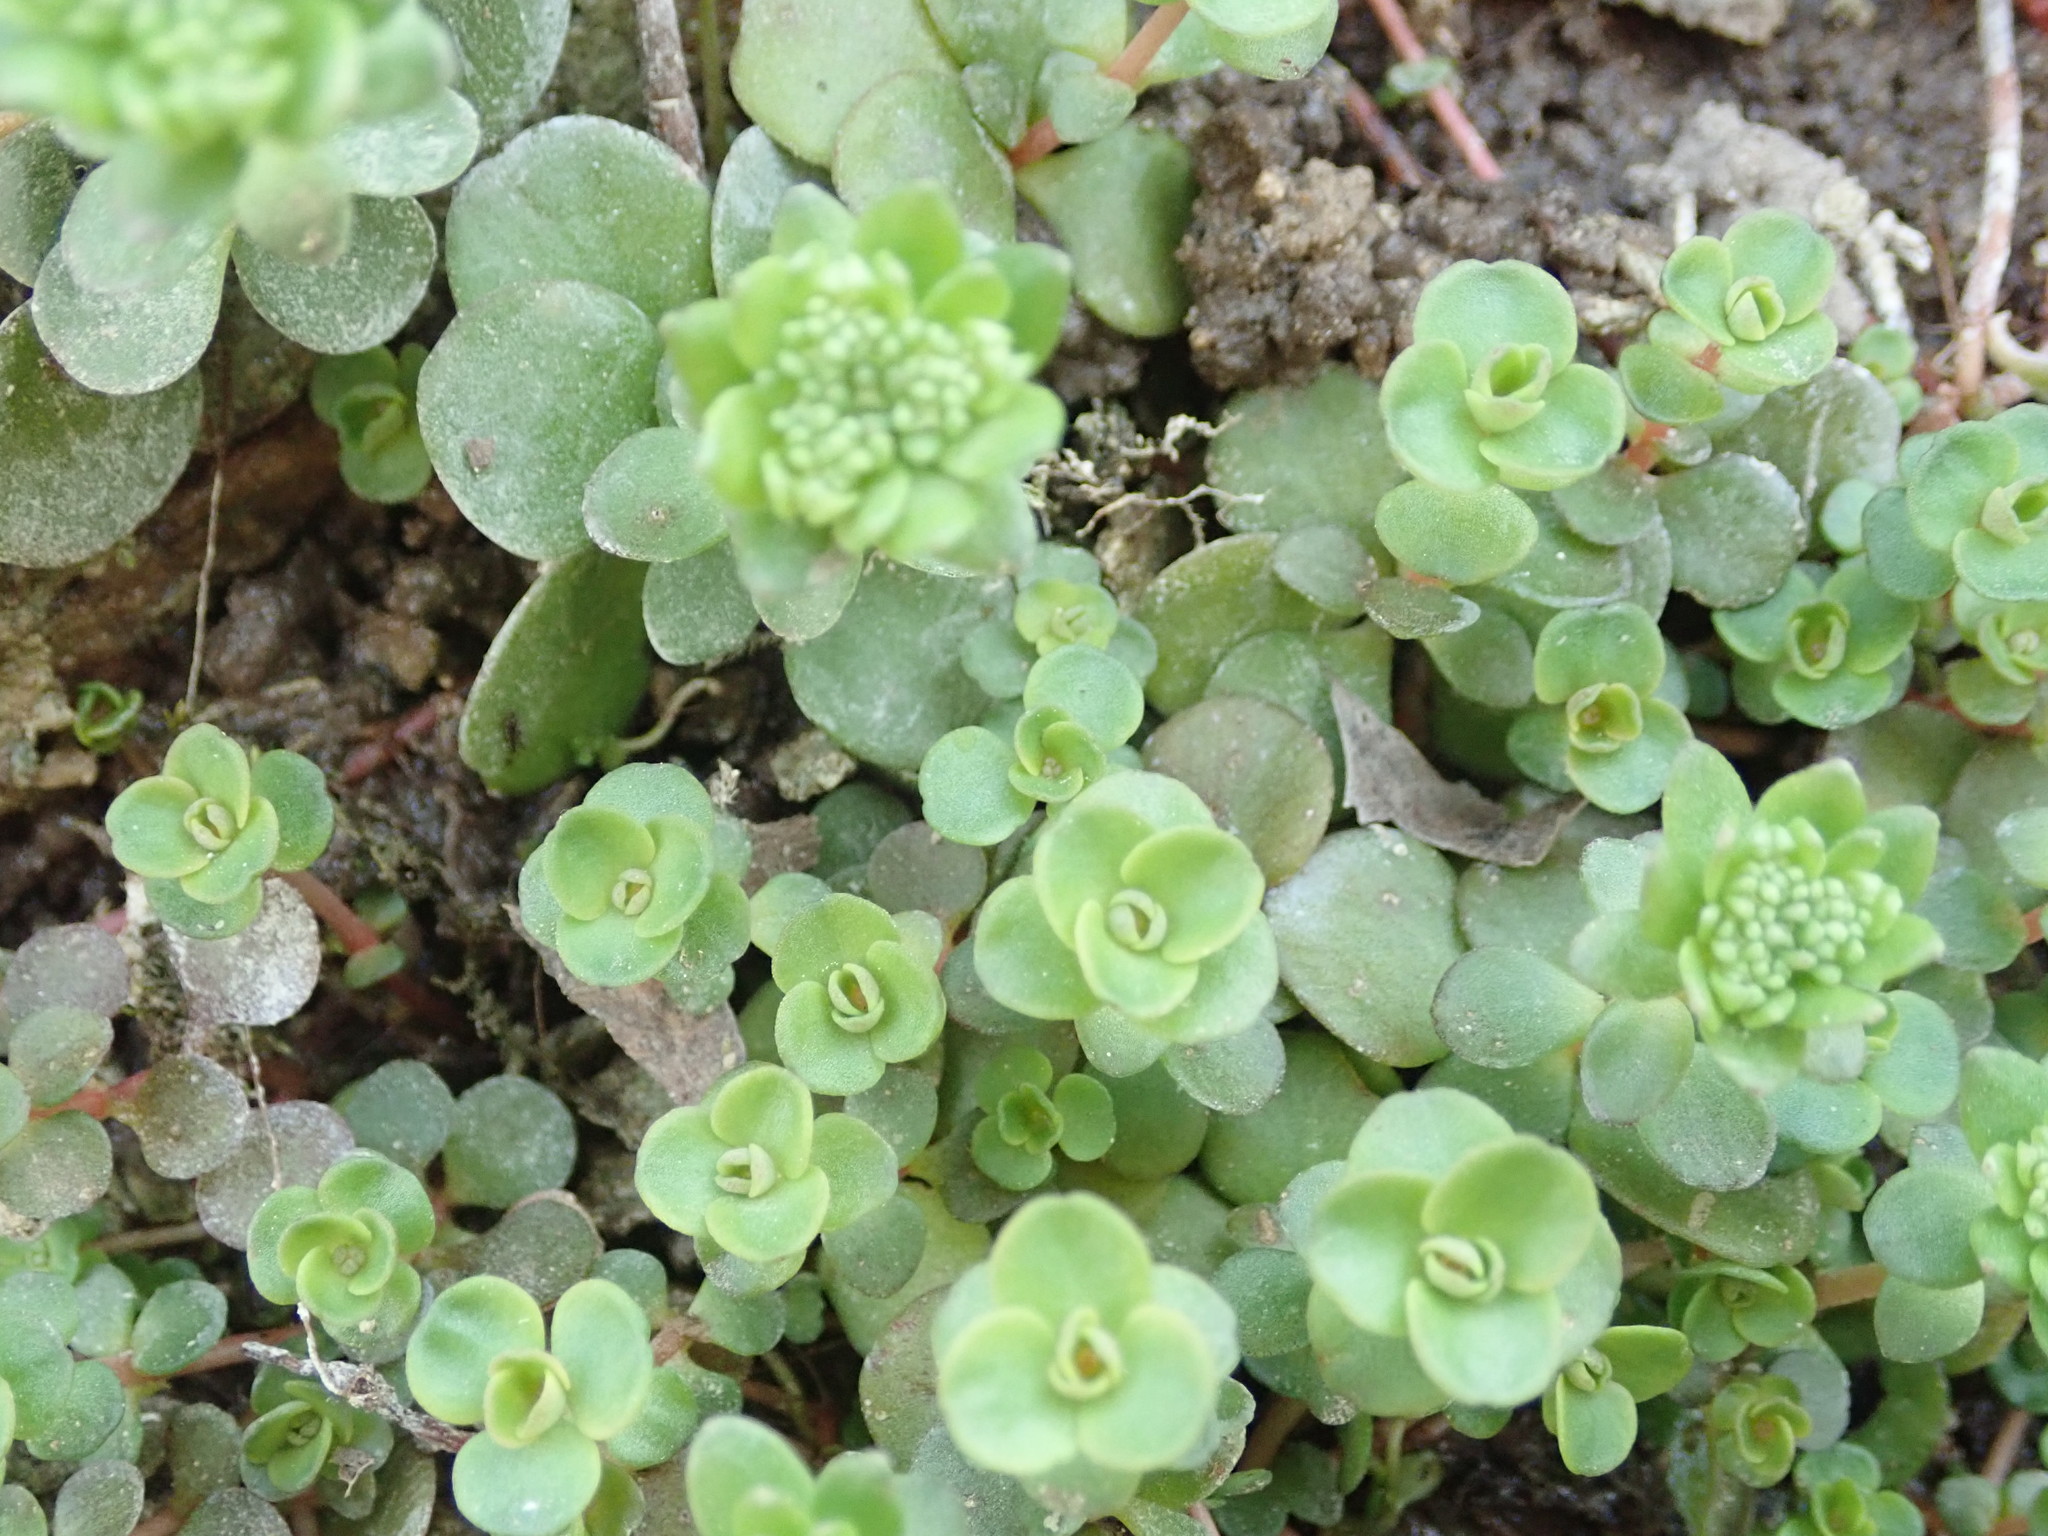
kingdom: Plantae
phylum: Tracheophyta
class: Magnoliopsida
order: Saxifragales
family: Crassulaceae
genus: Sedum
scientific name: Sedum ternatum
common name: Wild stonecrop
